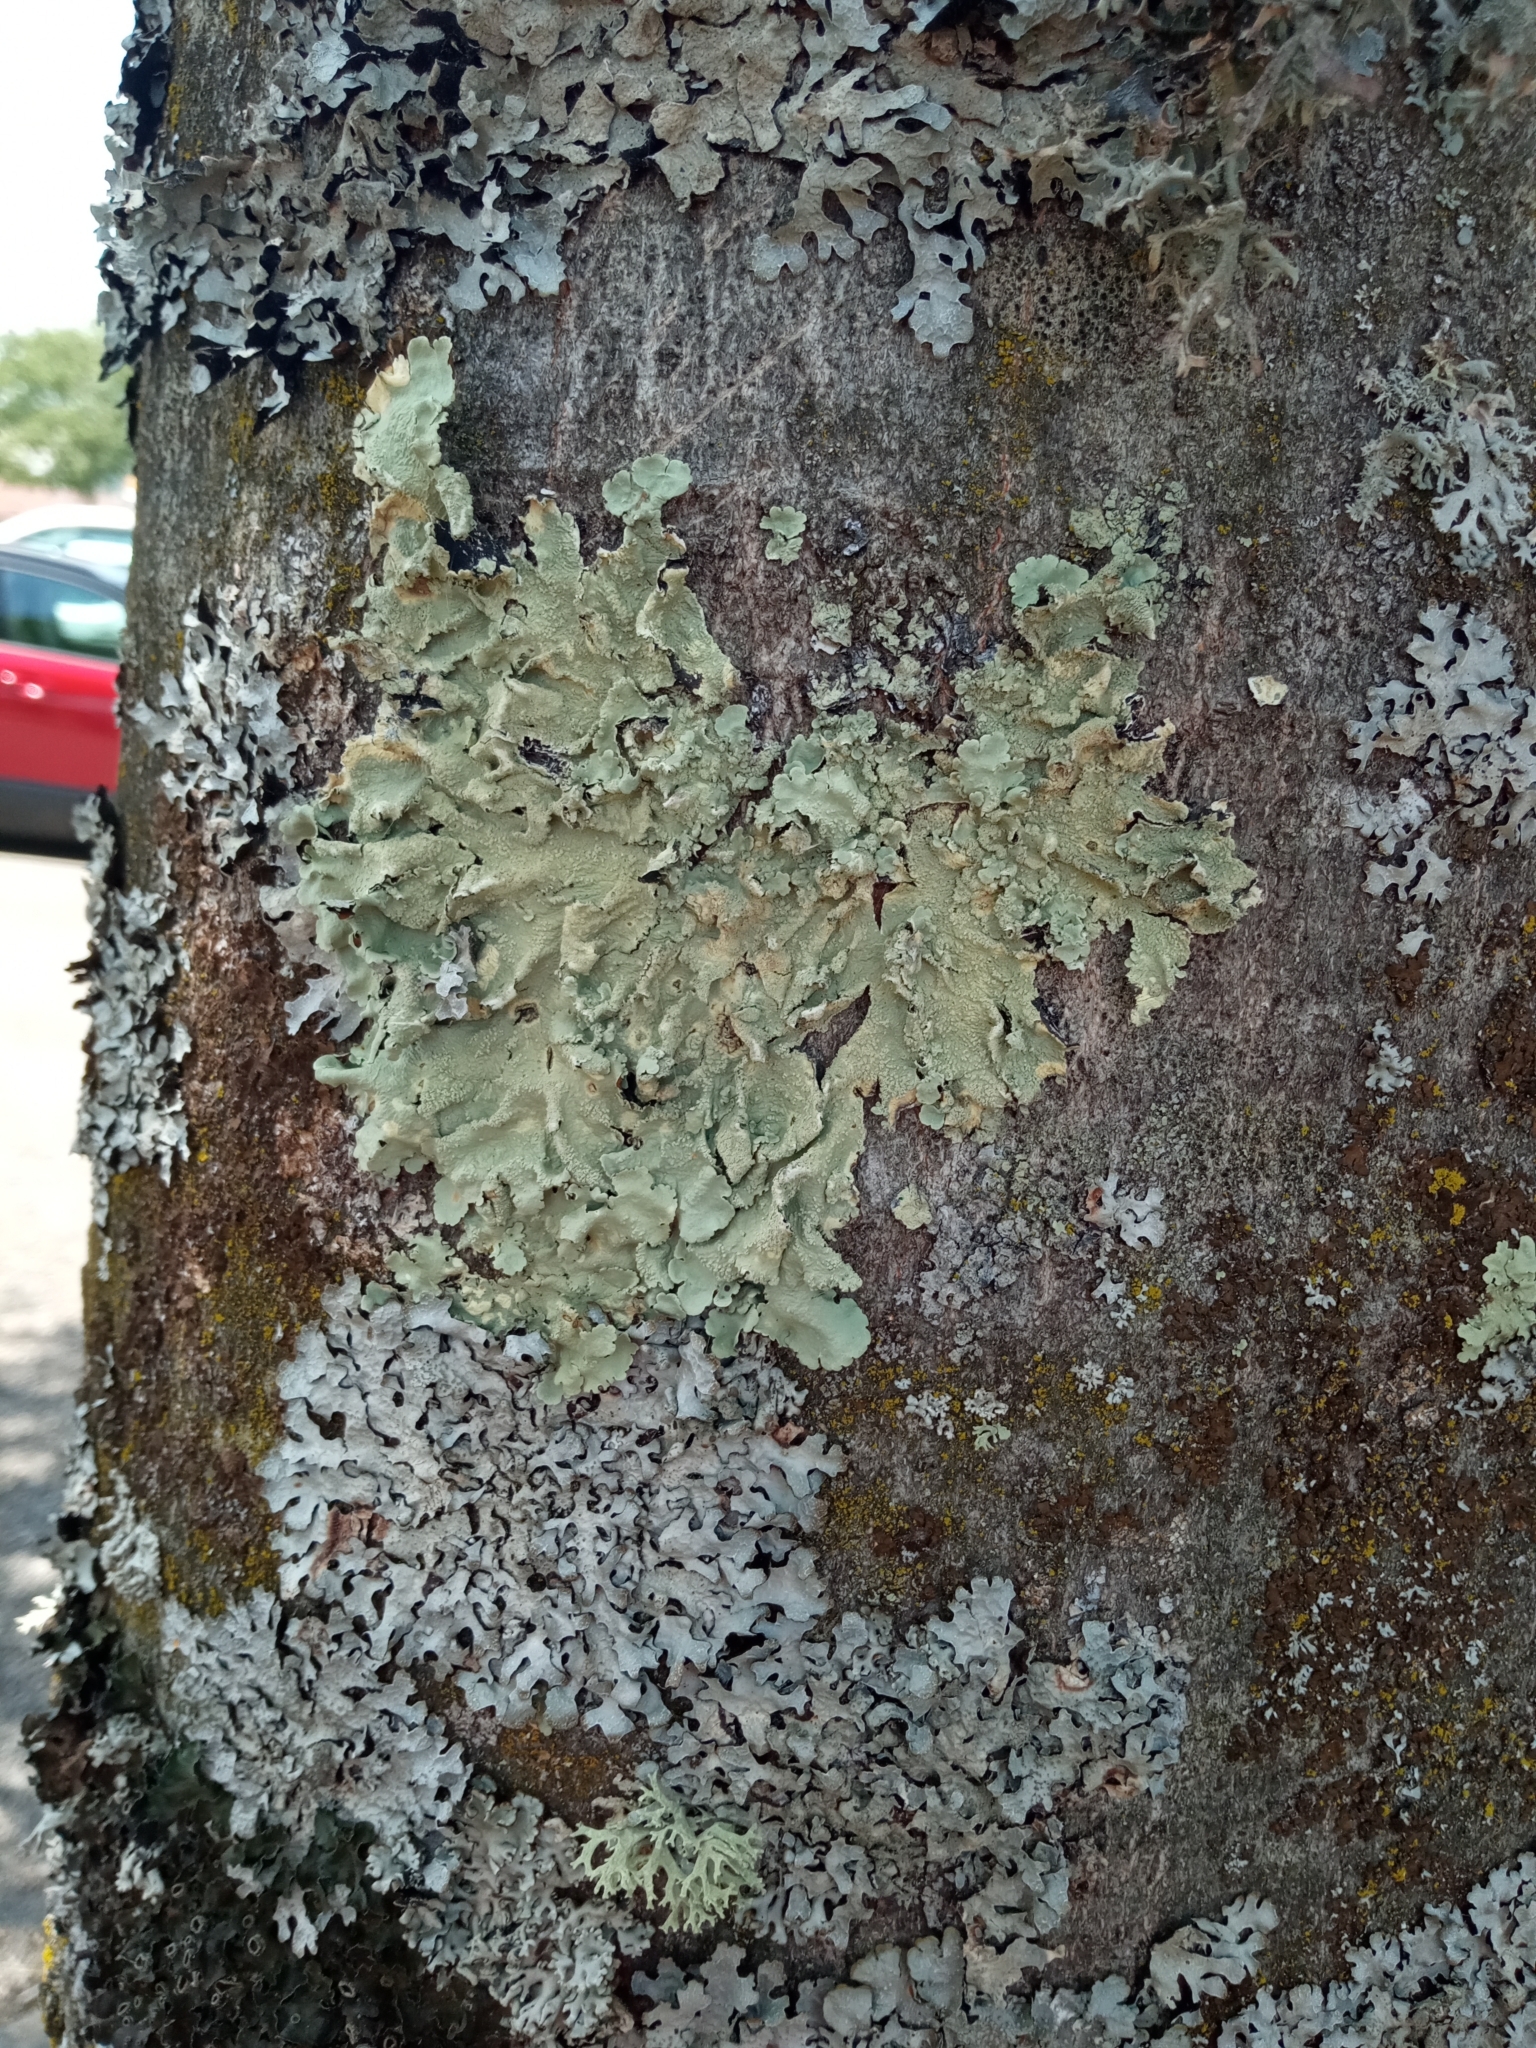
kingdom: Fungi
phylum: Ascomycota
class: Lecanoromycetes
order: Lecanorales
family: Parmeliaceae
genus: Flavoparmelia
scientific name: Flavoparmelia caperata
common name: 40-mile per hour lichen
